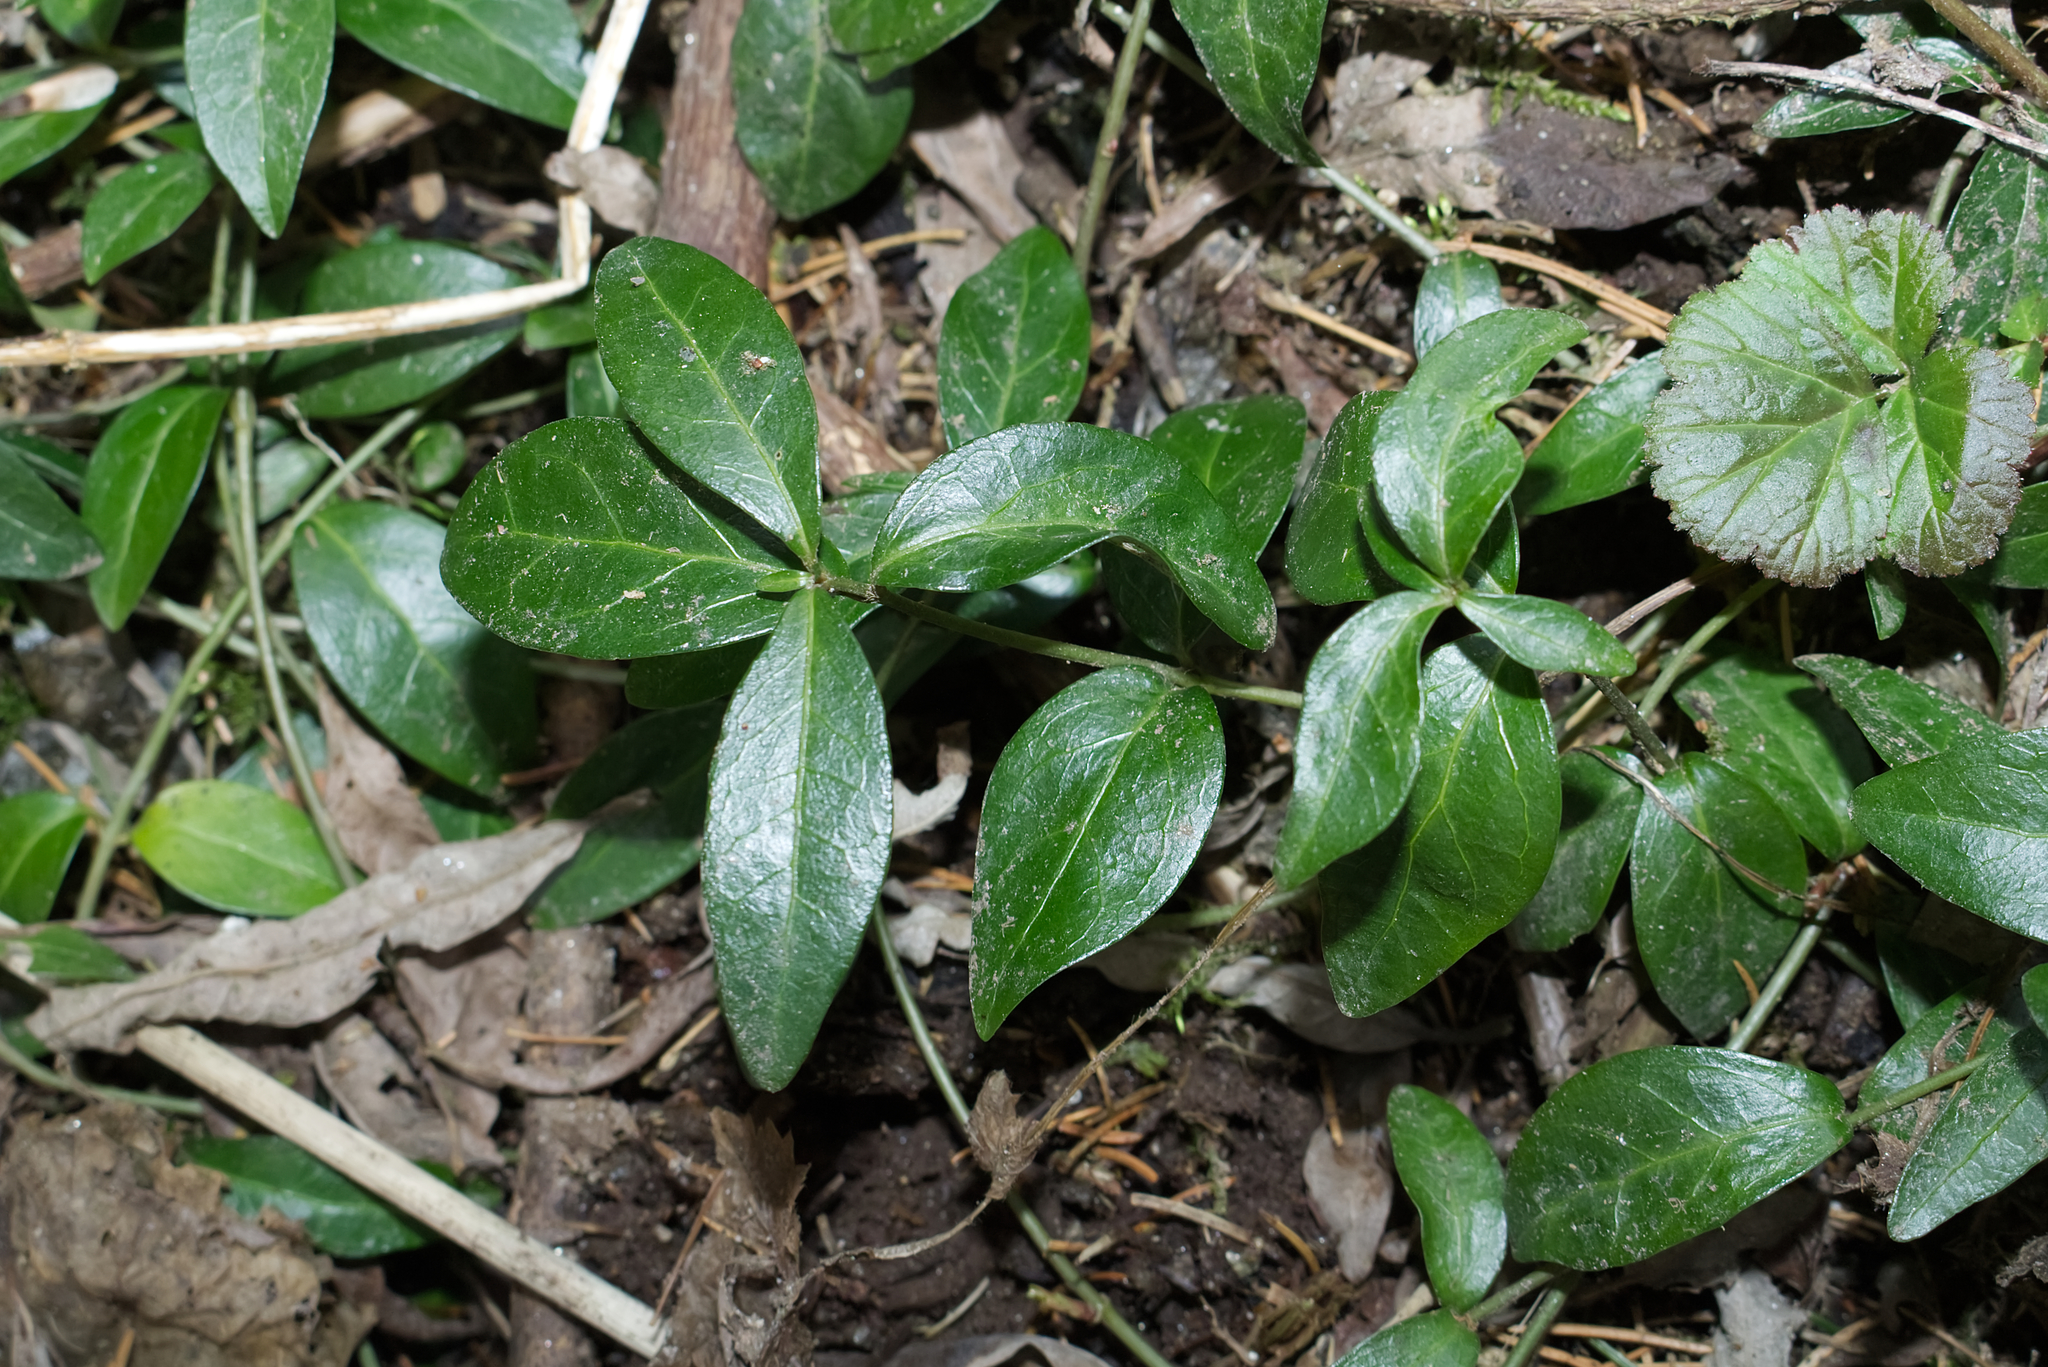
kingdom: Plantae
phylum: Tracheophyta
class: Magnoliopsida
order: Gentianales
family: Apocynaceae
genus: Vinca
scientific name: Vinca minor
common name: Lesser periwinkle
